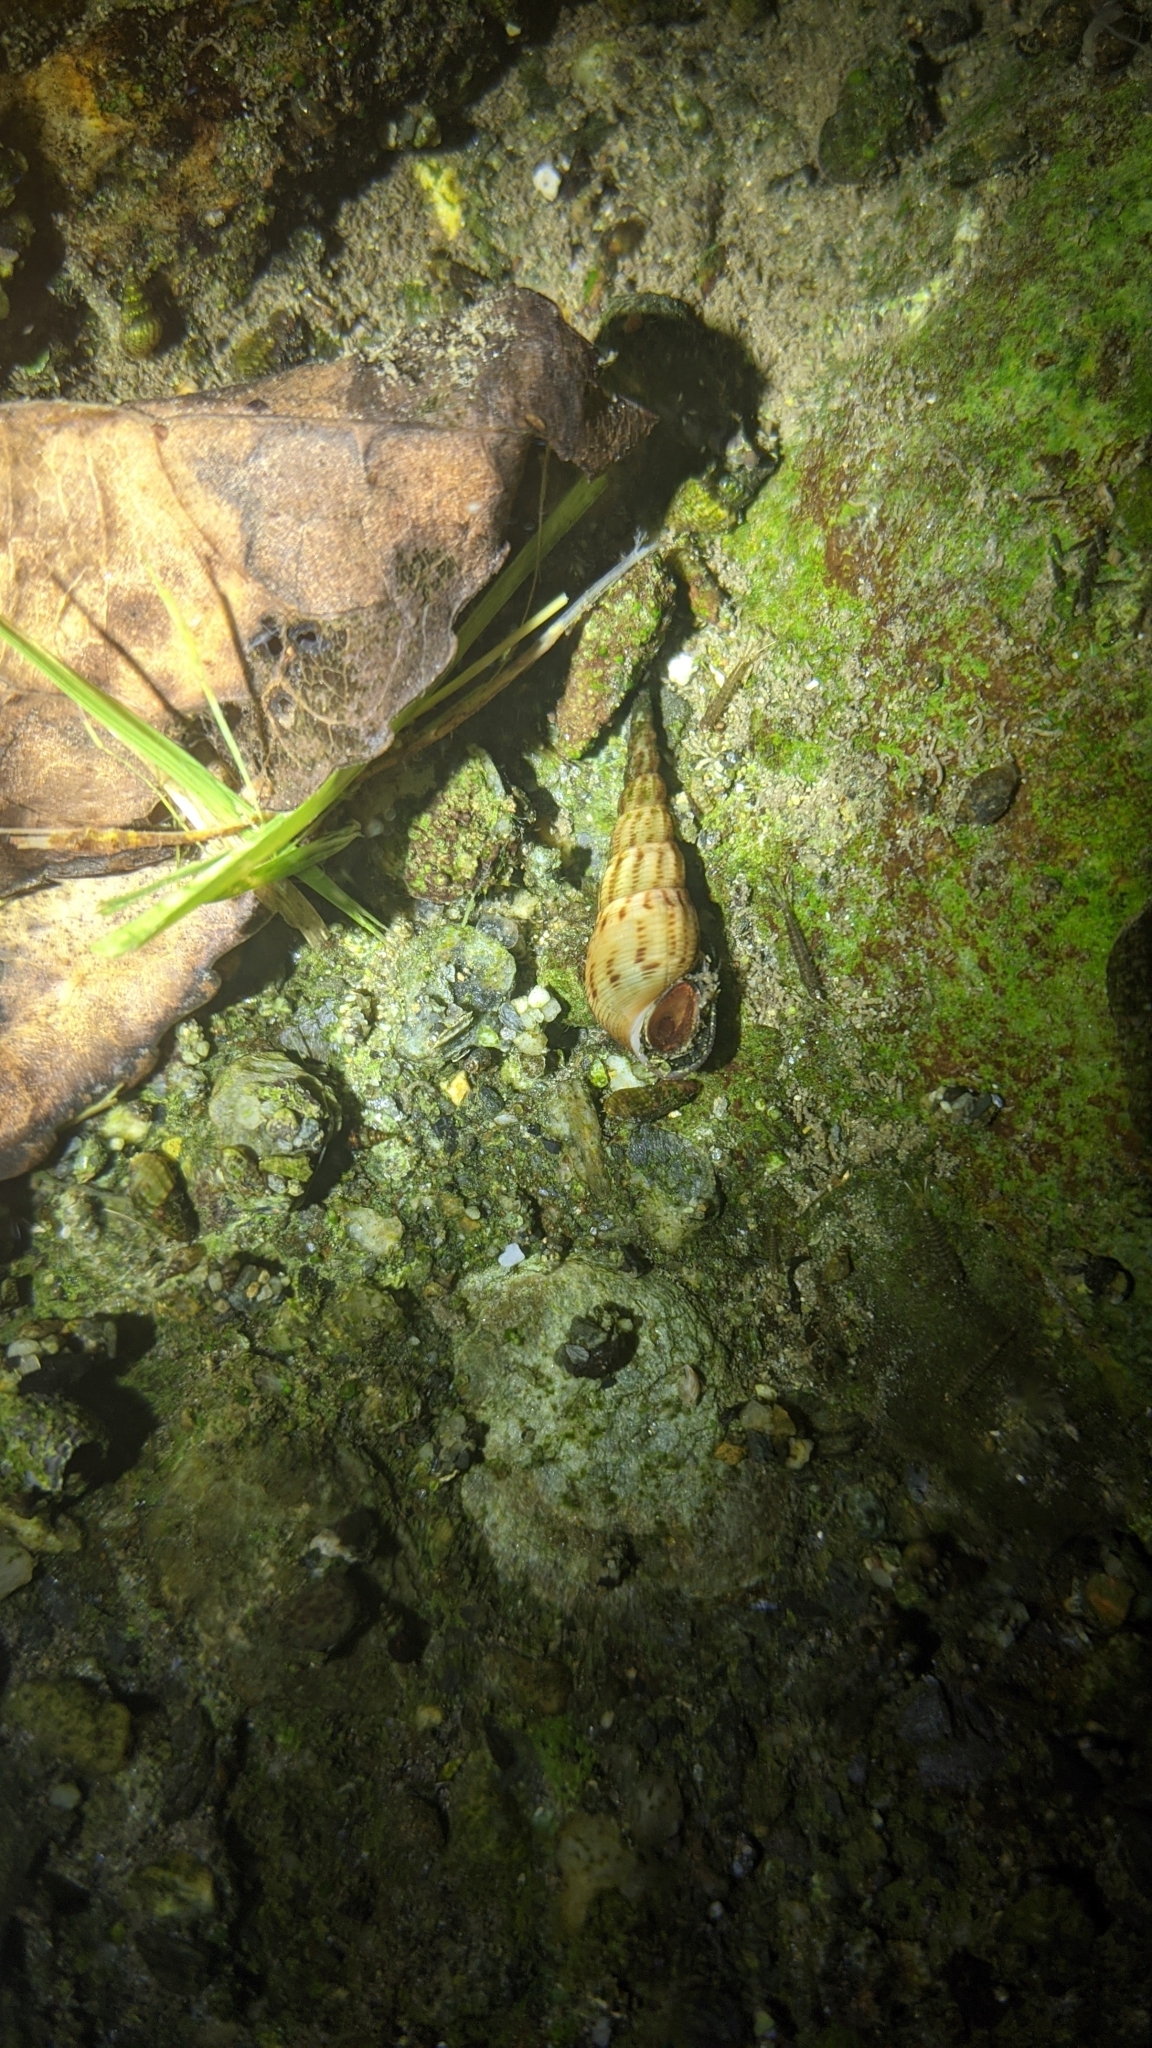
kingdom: Animalia
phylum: Mollusca
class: Gastropoda
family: Thiaridae
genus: Melanoides
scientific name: Melanoides tuberculata
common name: Red-rim melania
